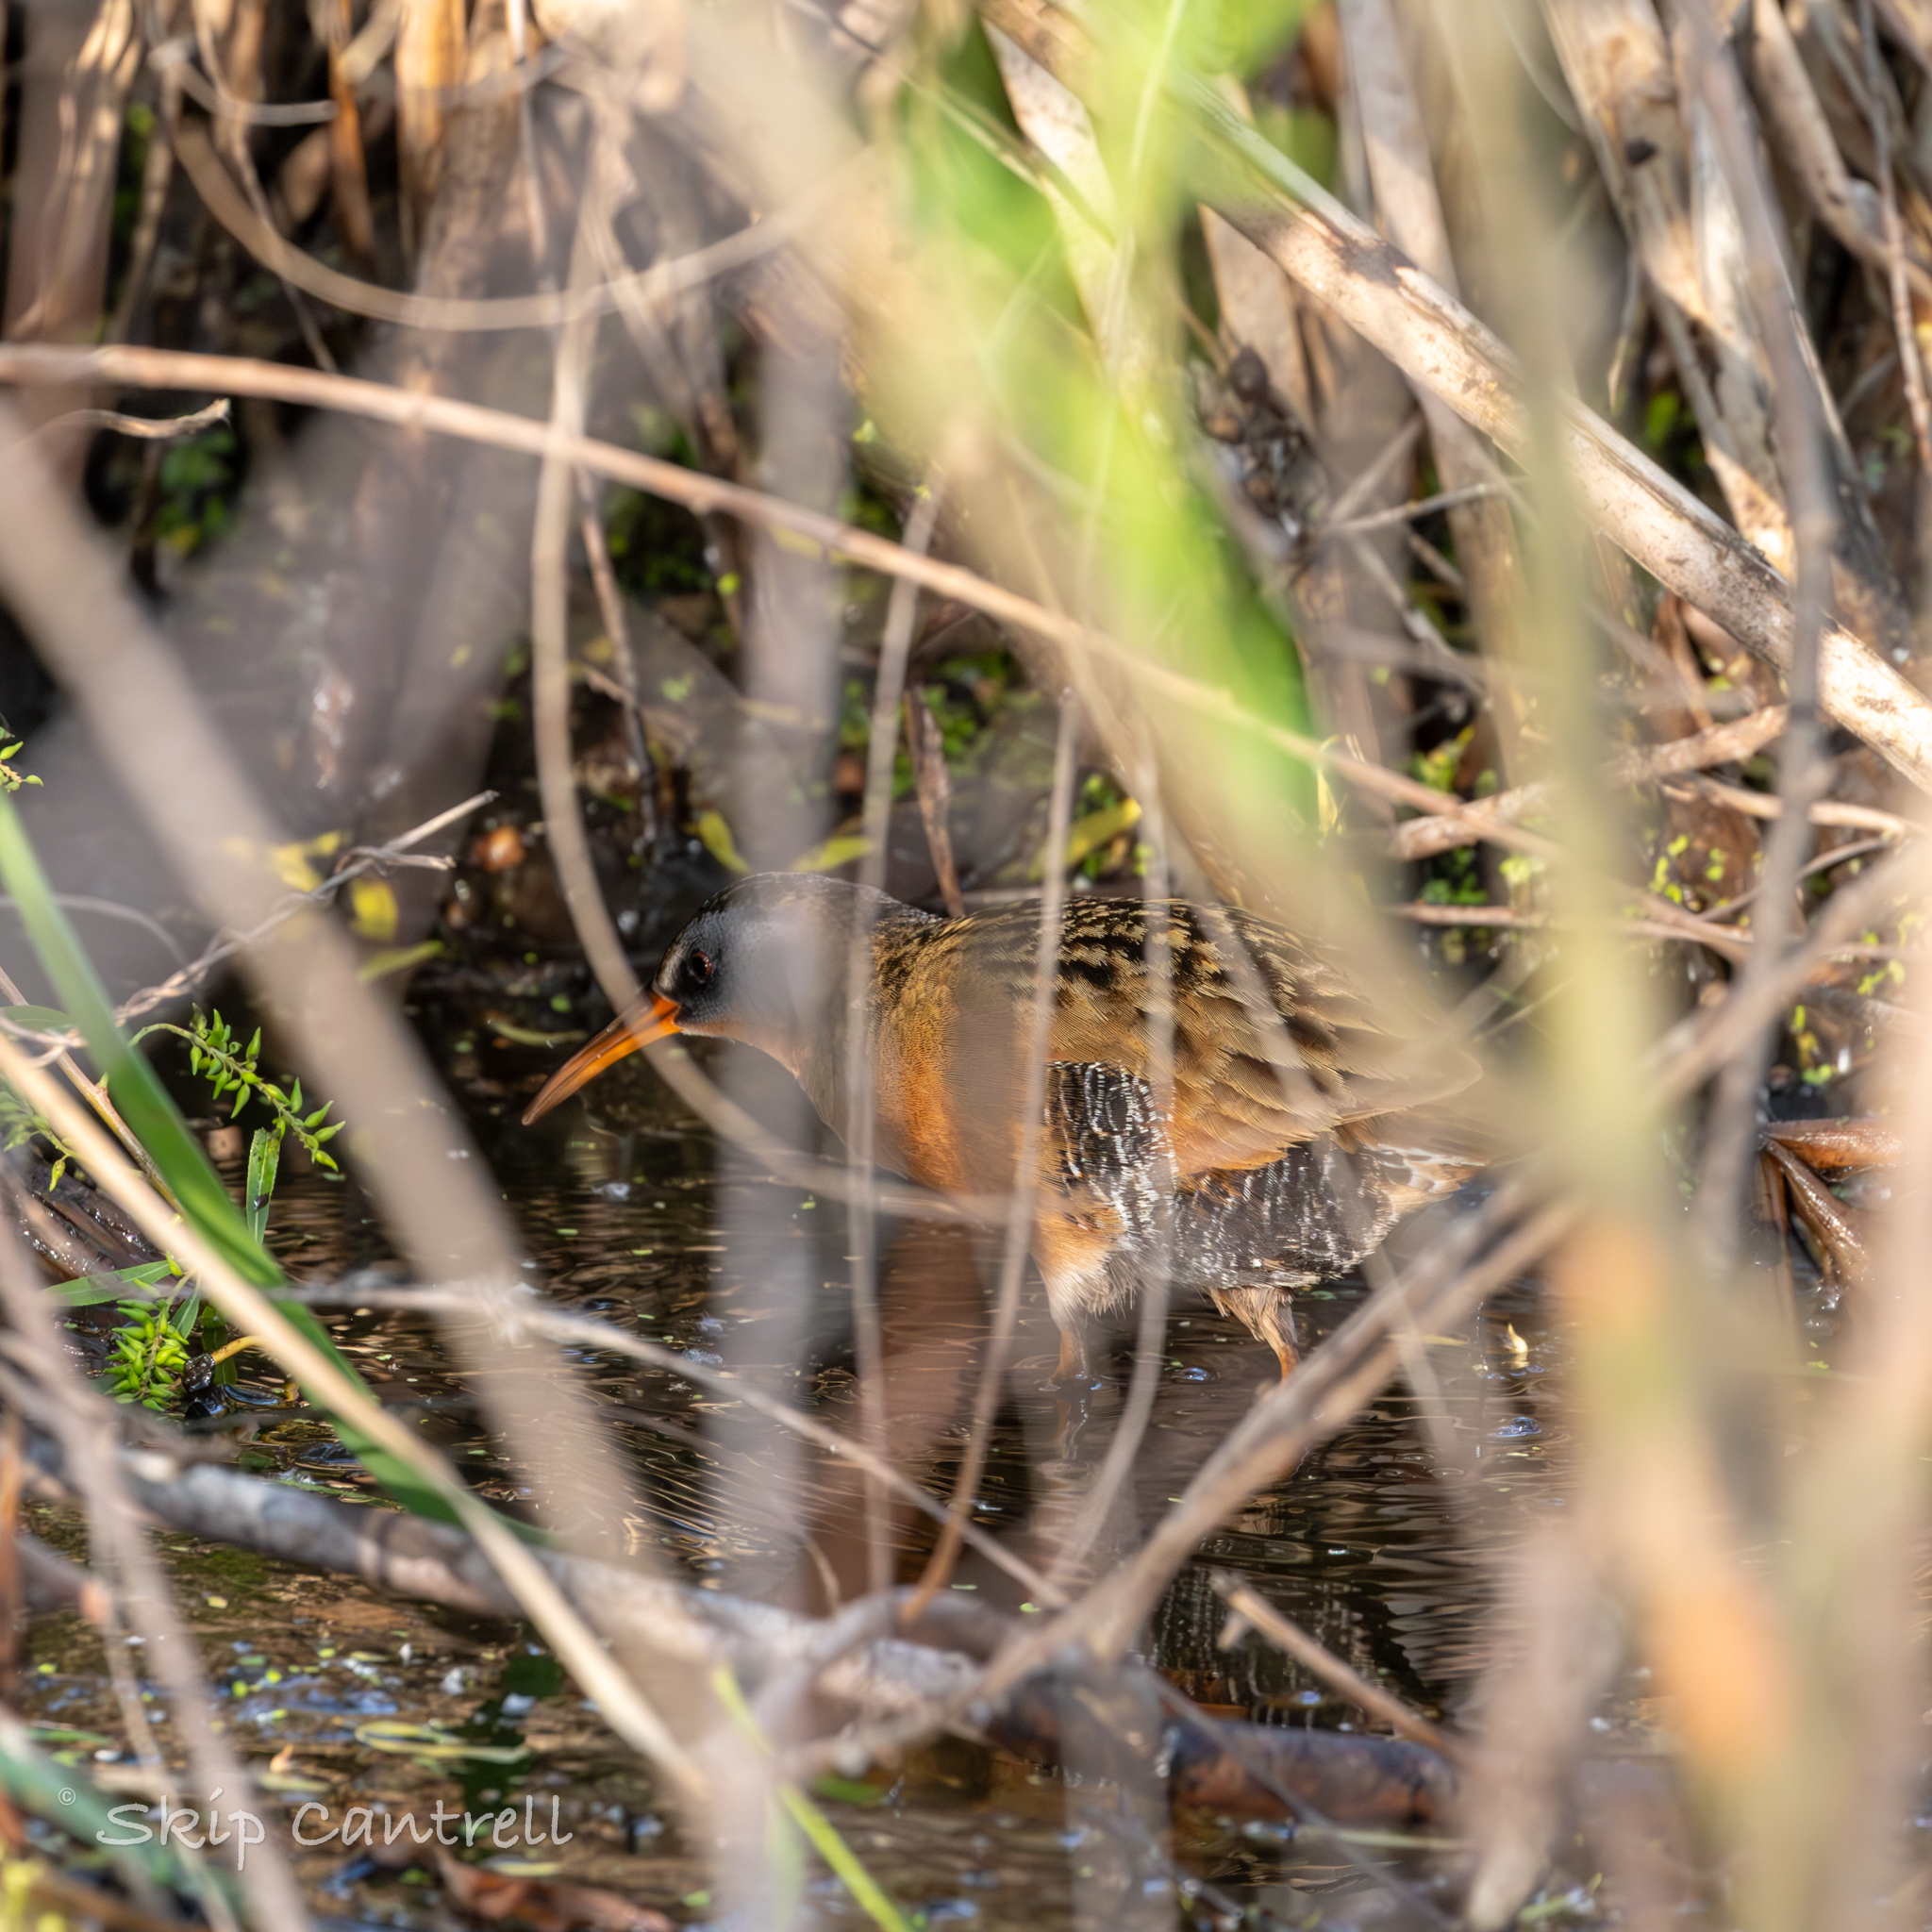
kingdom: Animalia
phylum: Chordata
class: Aves
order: Gruiformes
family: Rallidae
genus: Rallus
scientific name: Rallus limicola
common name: Virginia rail
